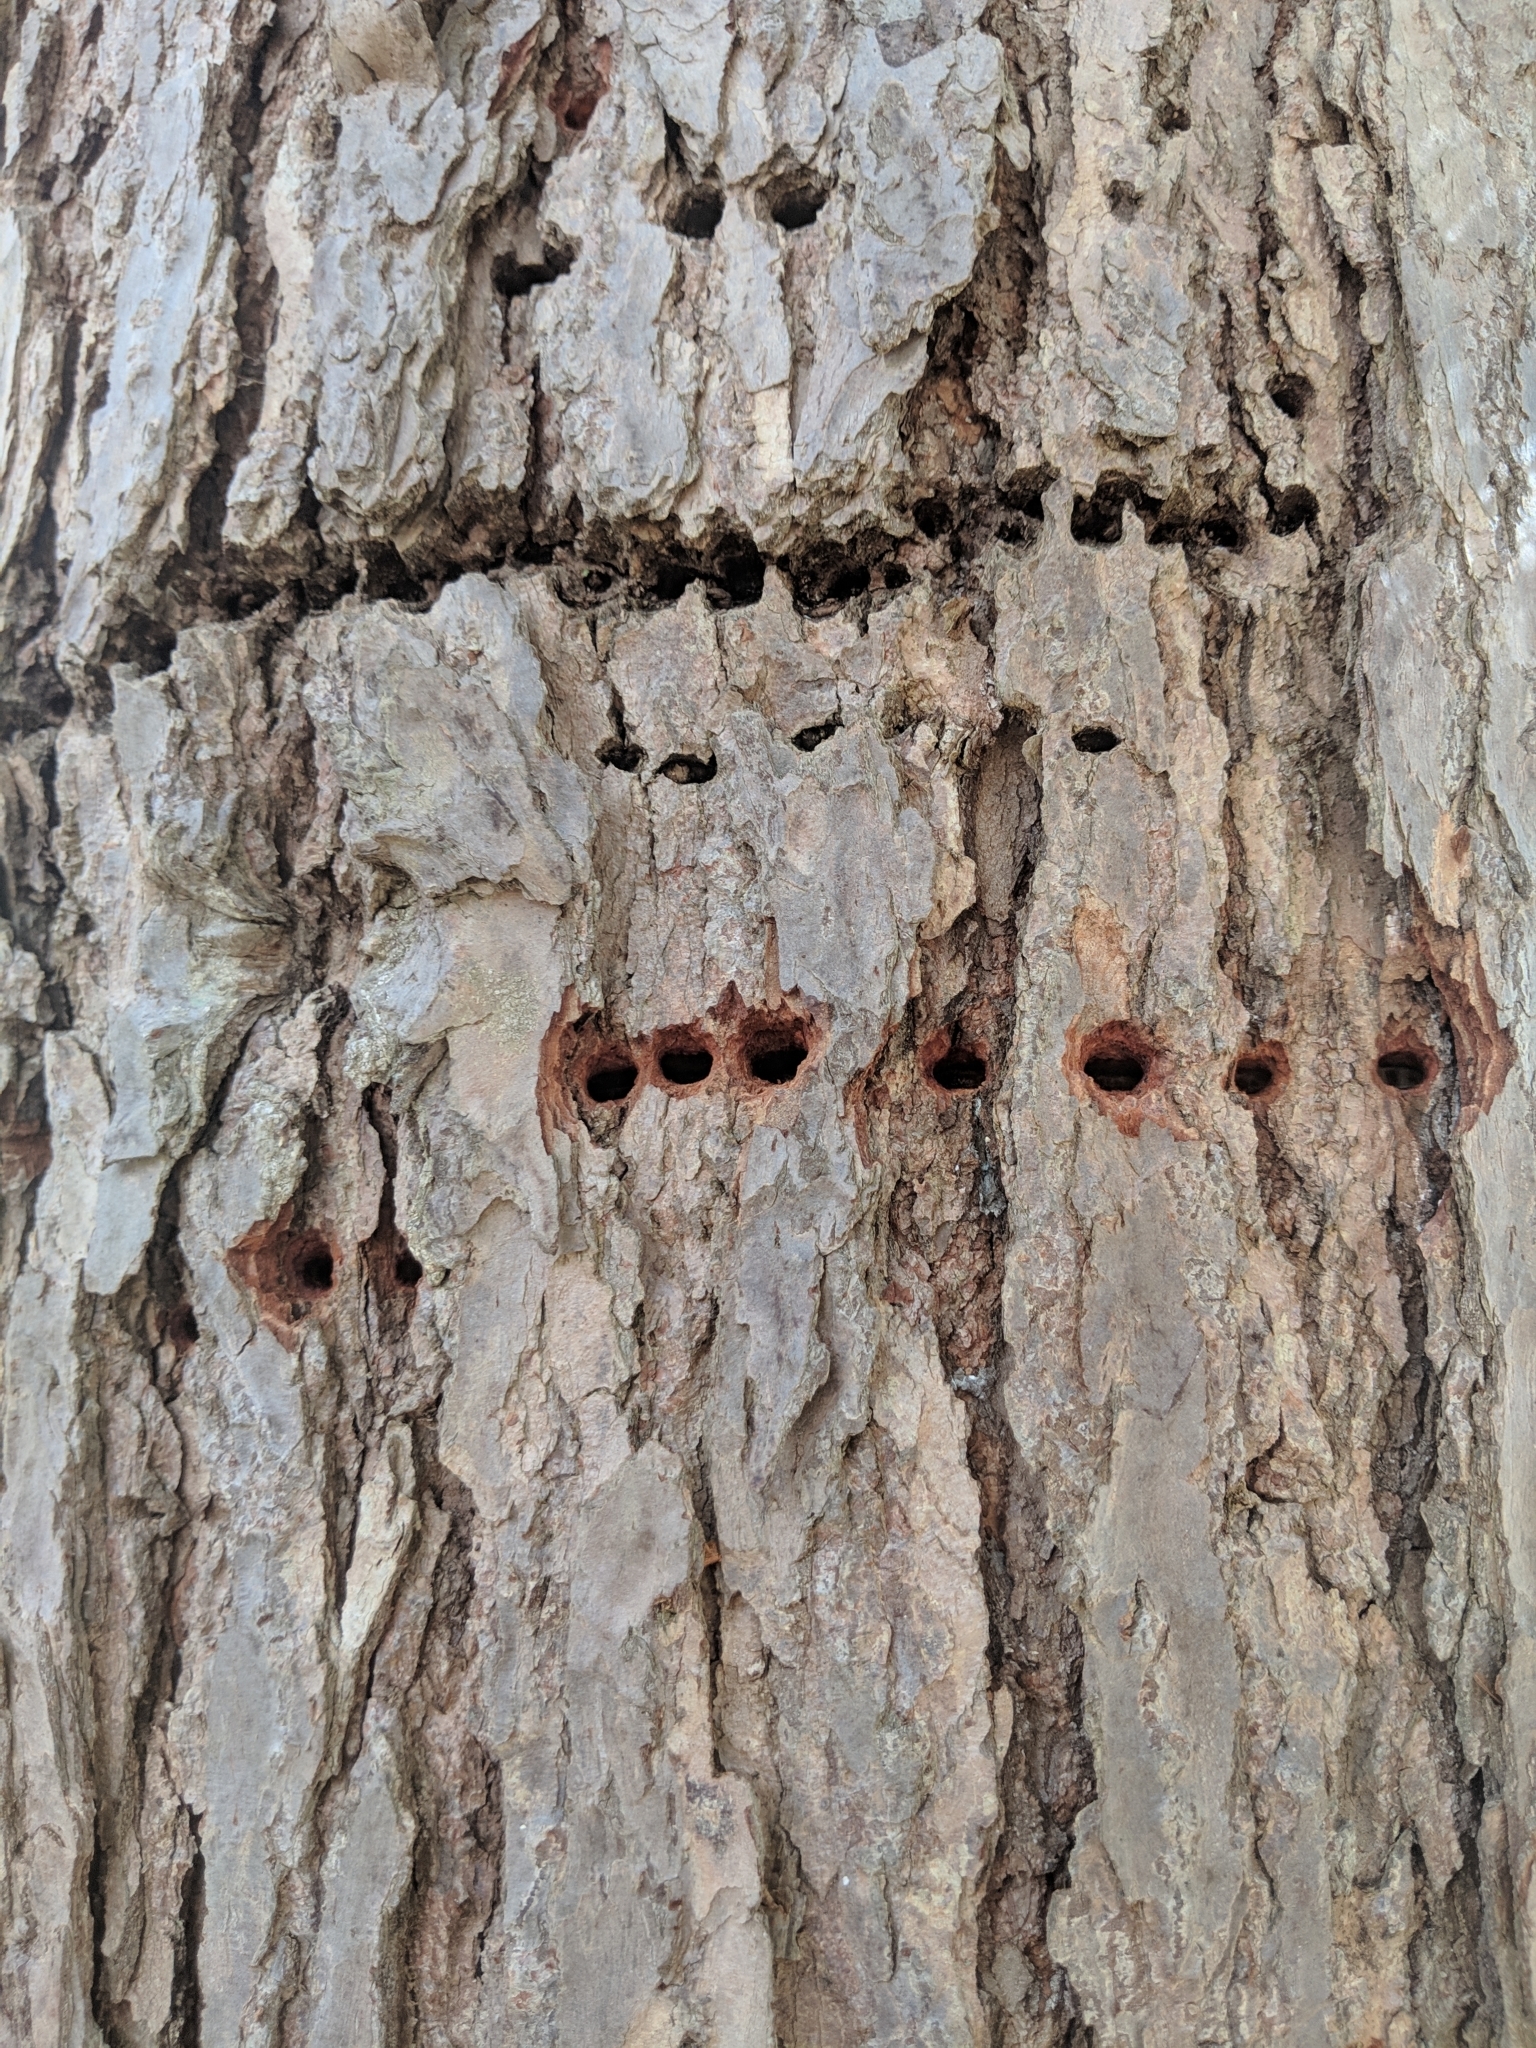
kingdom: Animalia
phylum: Chordata
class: Aves
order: Piciformes
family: Picidae
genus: Sphyrapicus
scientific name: Sphyrapicus varius
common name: Yellow-bellied sapsucker
